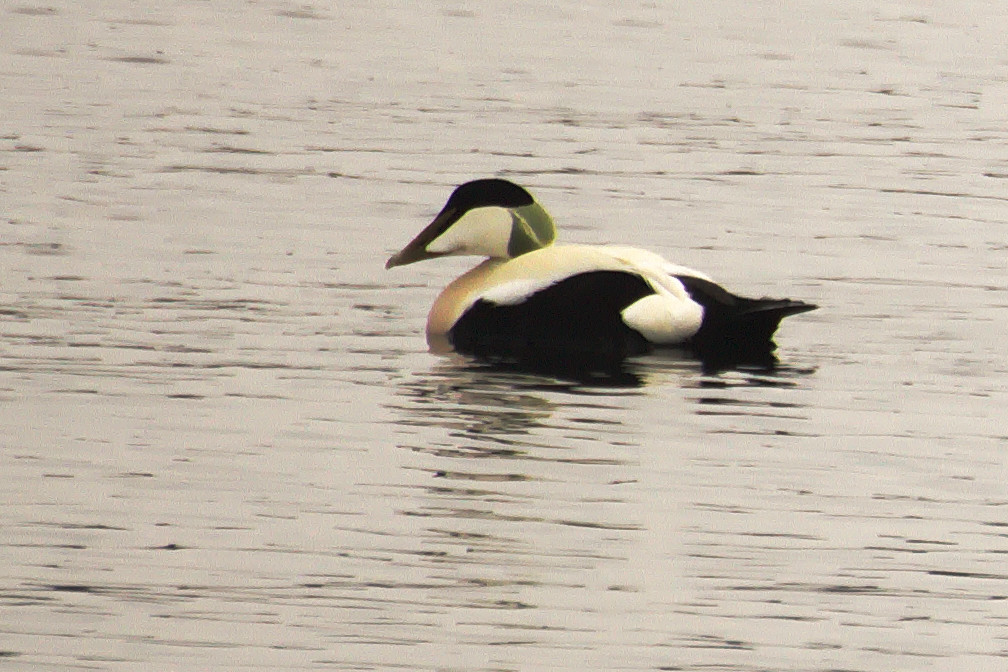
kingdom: Animalia
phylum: Chordata
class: Aves
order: Anseriformes
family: Anatidae
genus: Somateria
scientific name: Somateria mollissima
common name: Common eider
